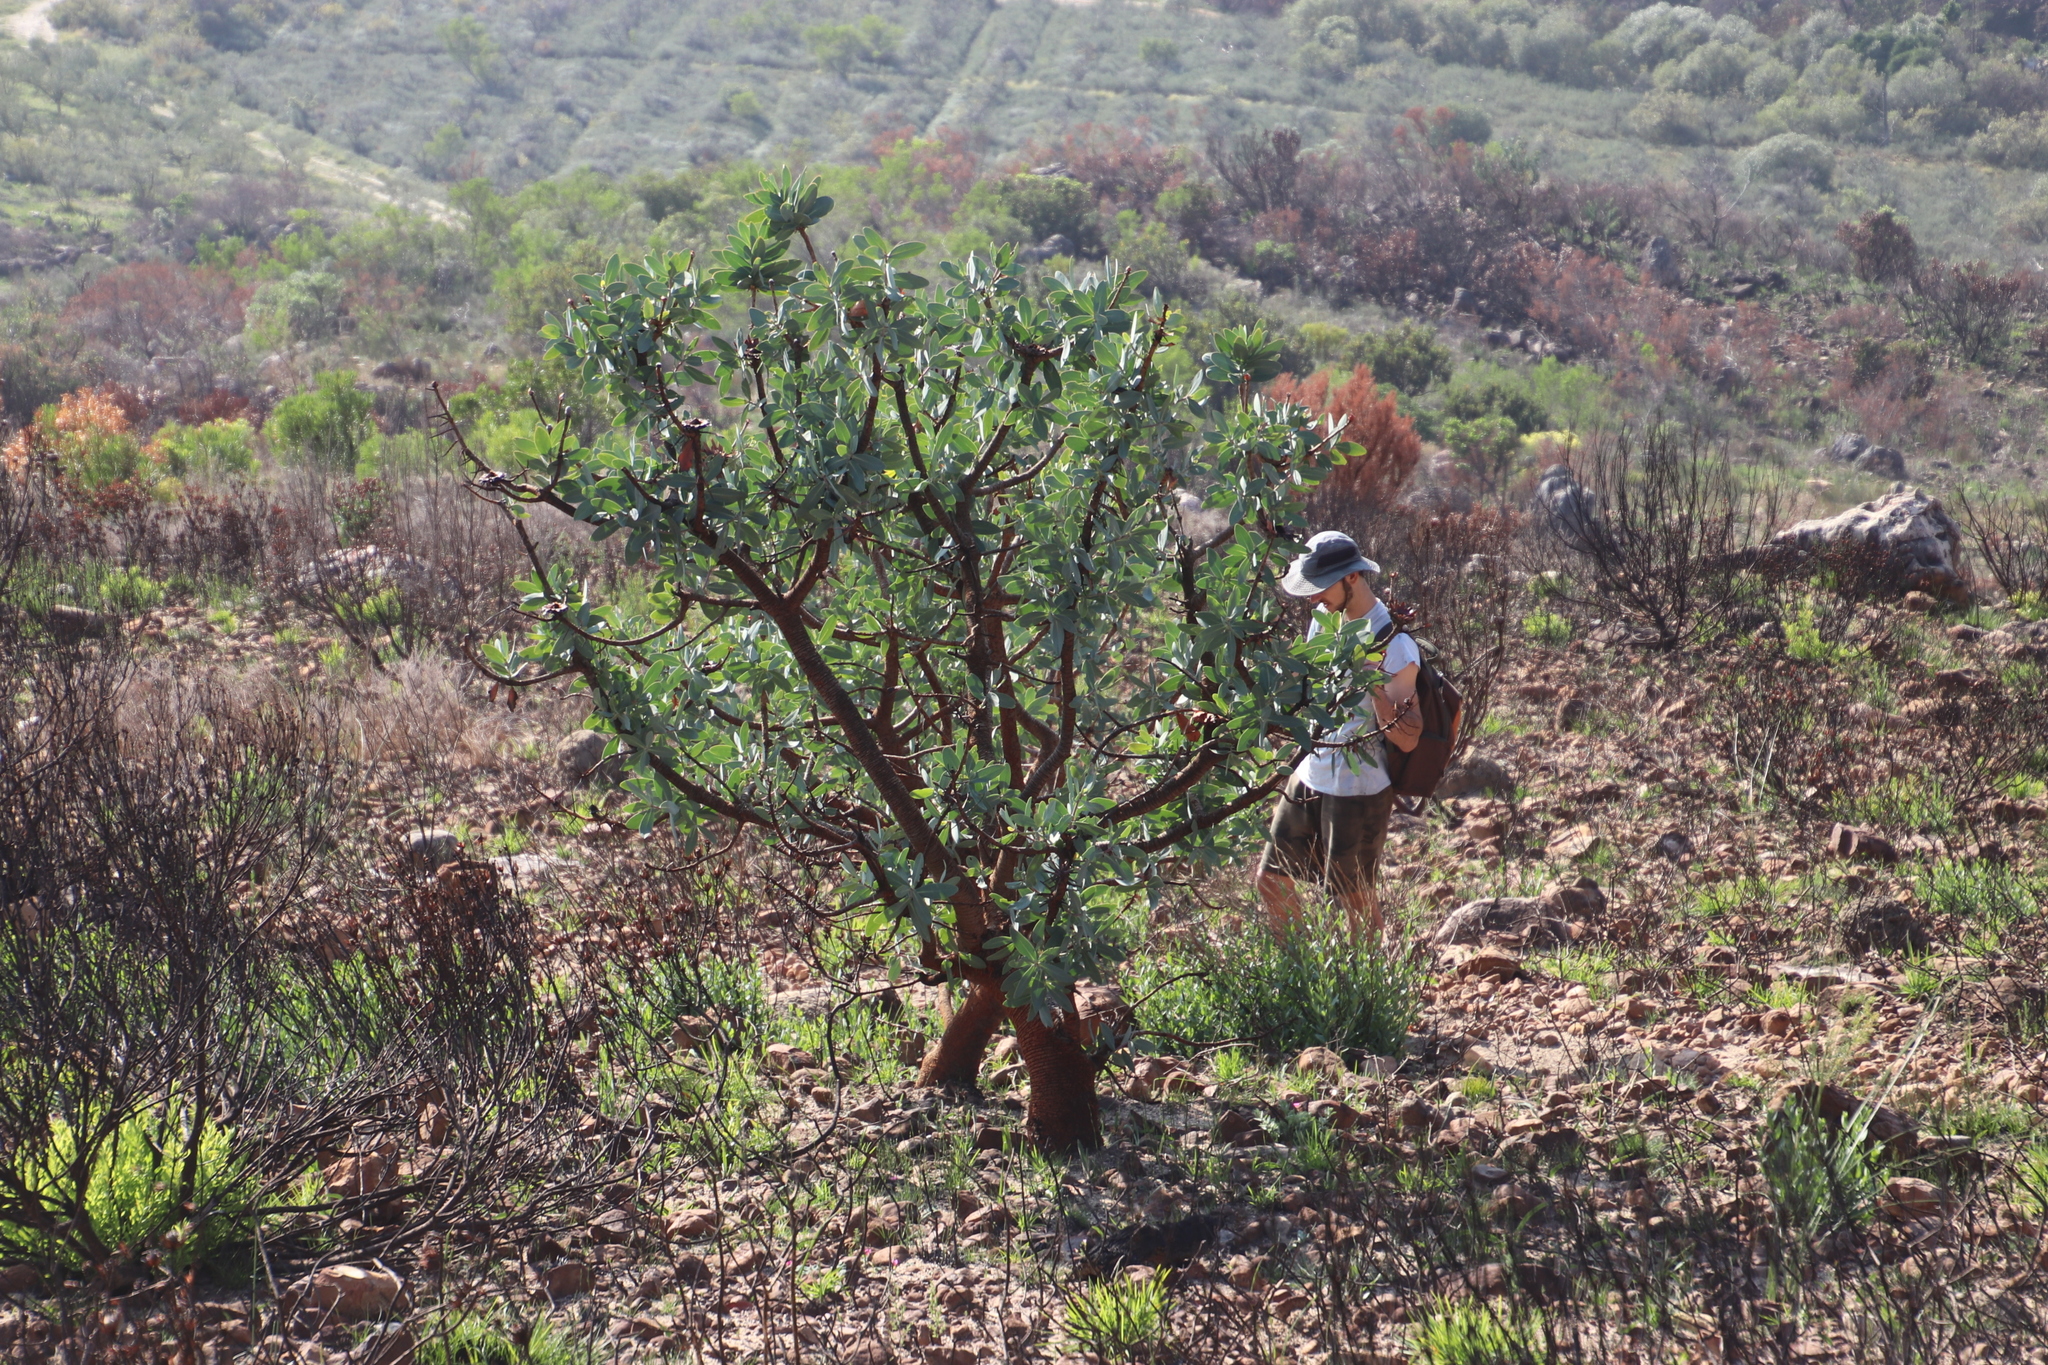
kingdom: Plantae
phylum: Tracheophyta
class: Magnoliopsida
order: Proteales
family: Proteaceae
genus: Protea
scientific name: Protea nitida
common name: Tree protea
